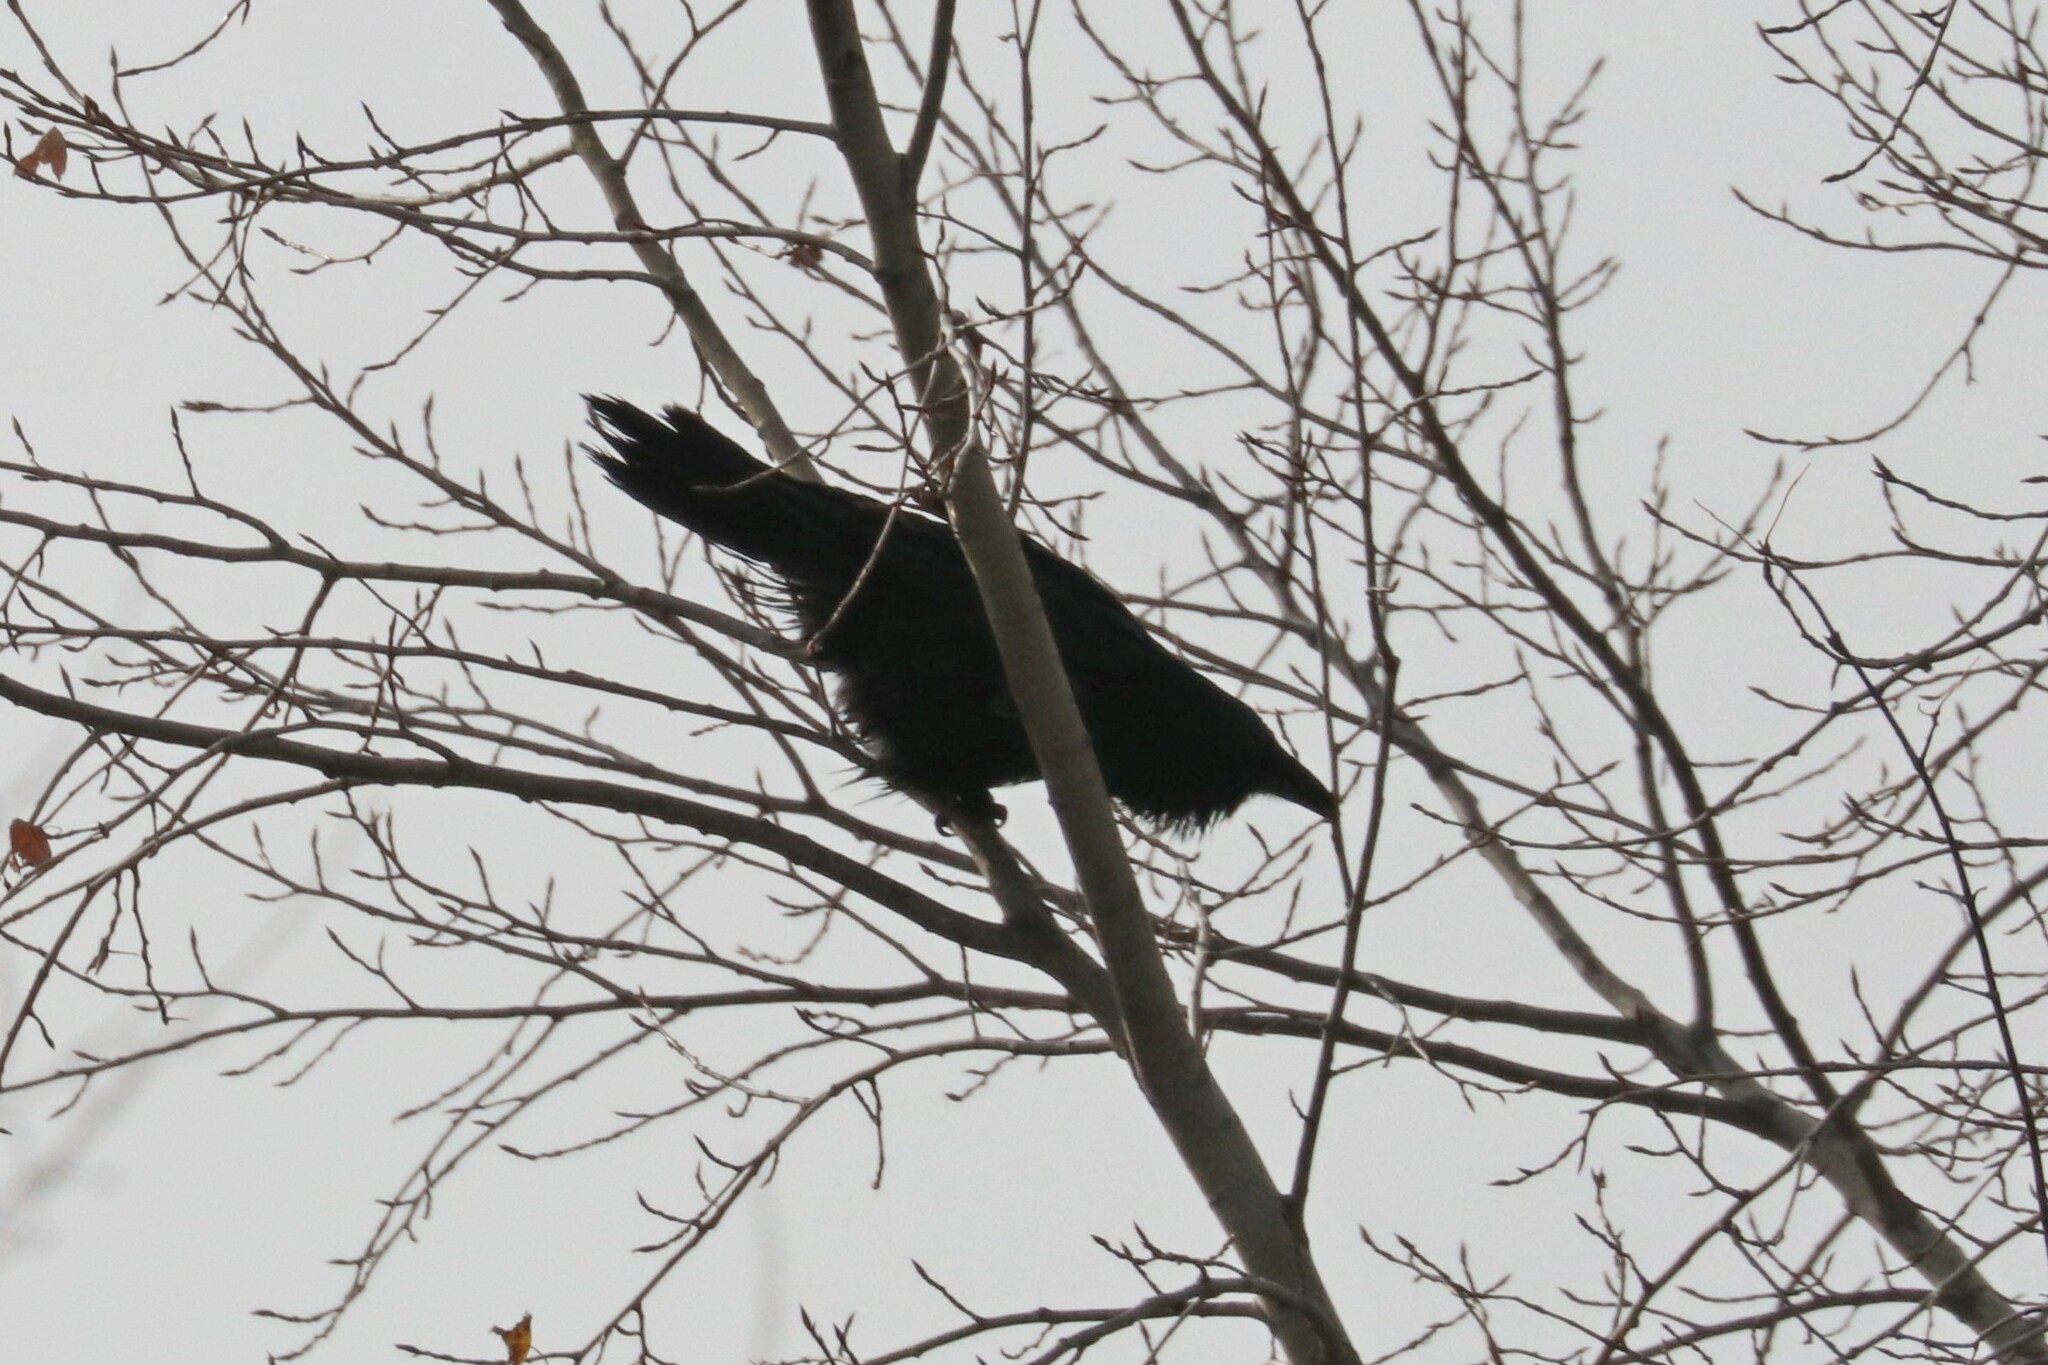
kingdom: Animalia
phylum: Chordata
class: Aves
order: Passeriformes
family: Corvidae
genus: Corvus
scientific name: Corvus corax
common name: Common raven
